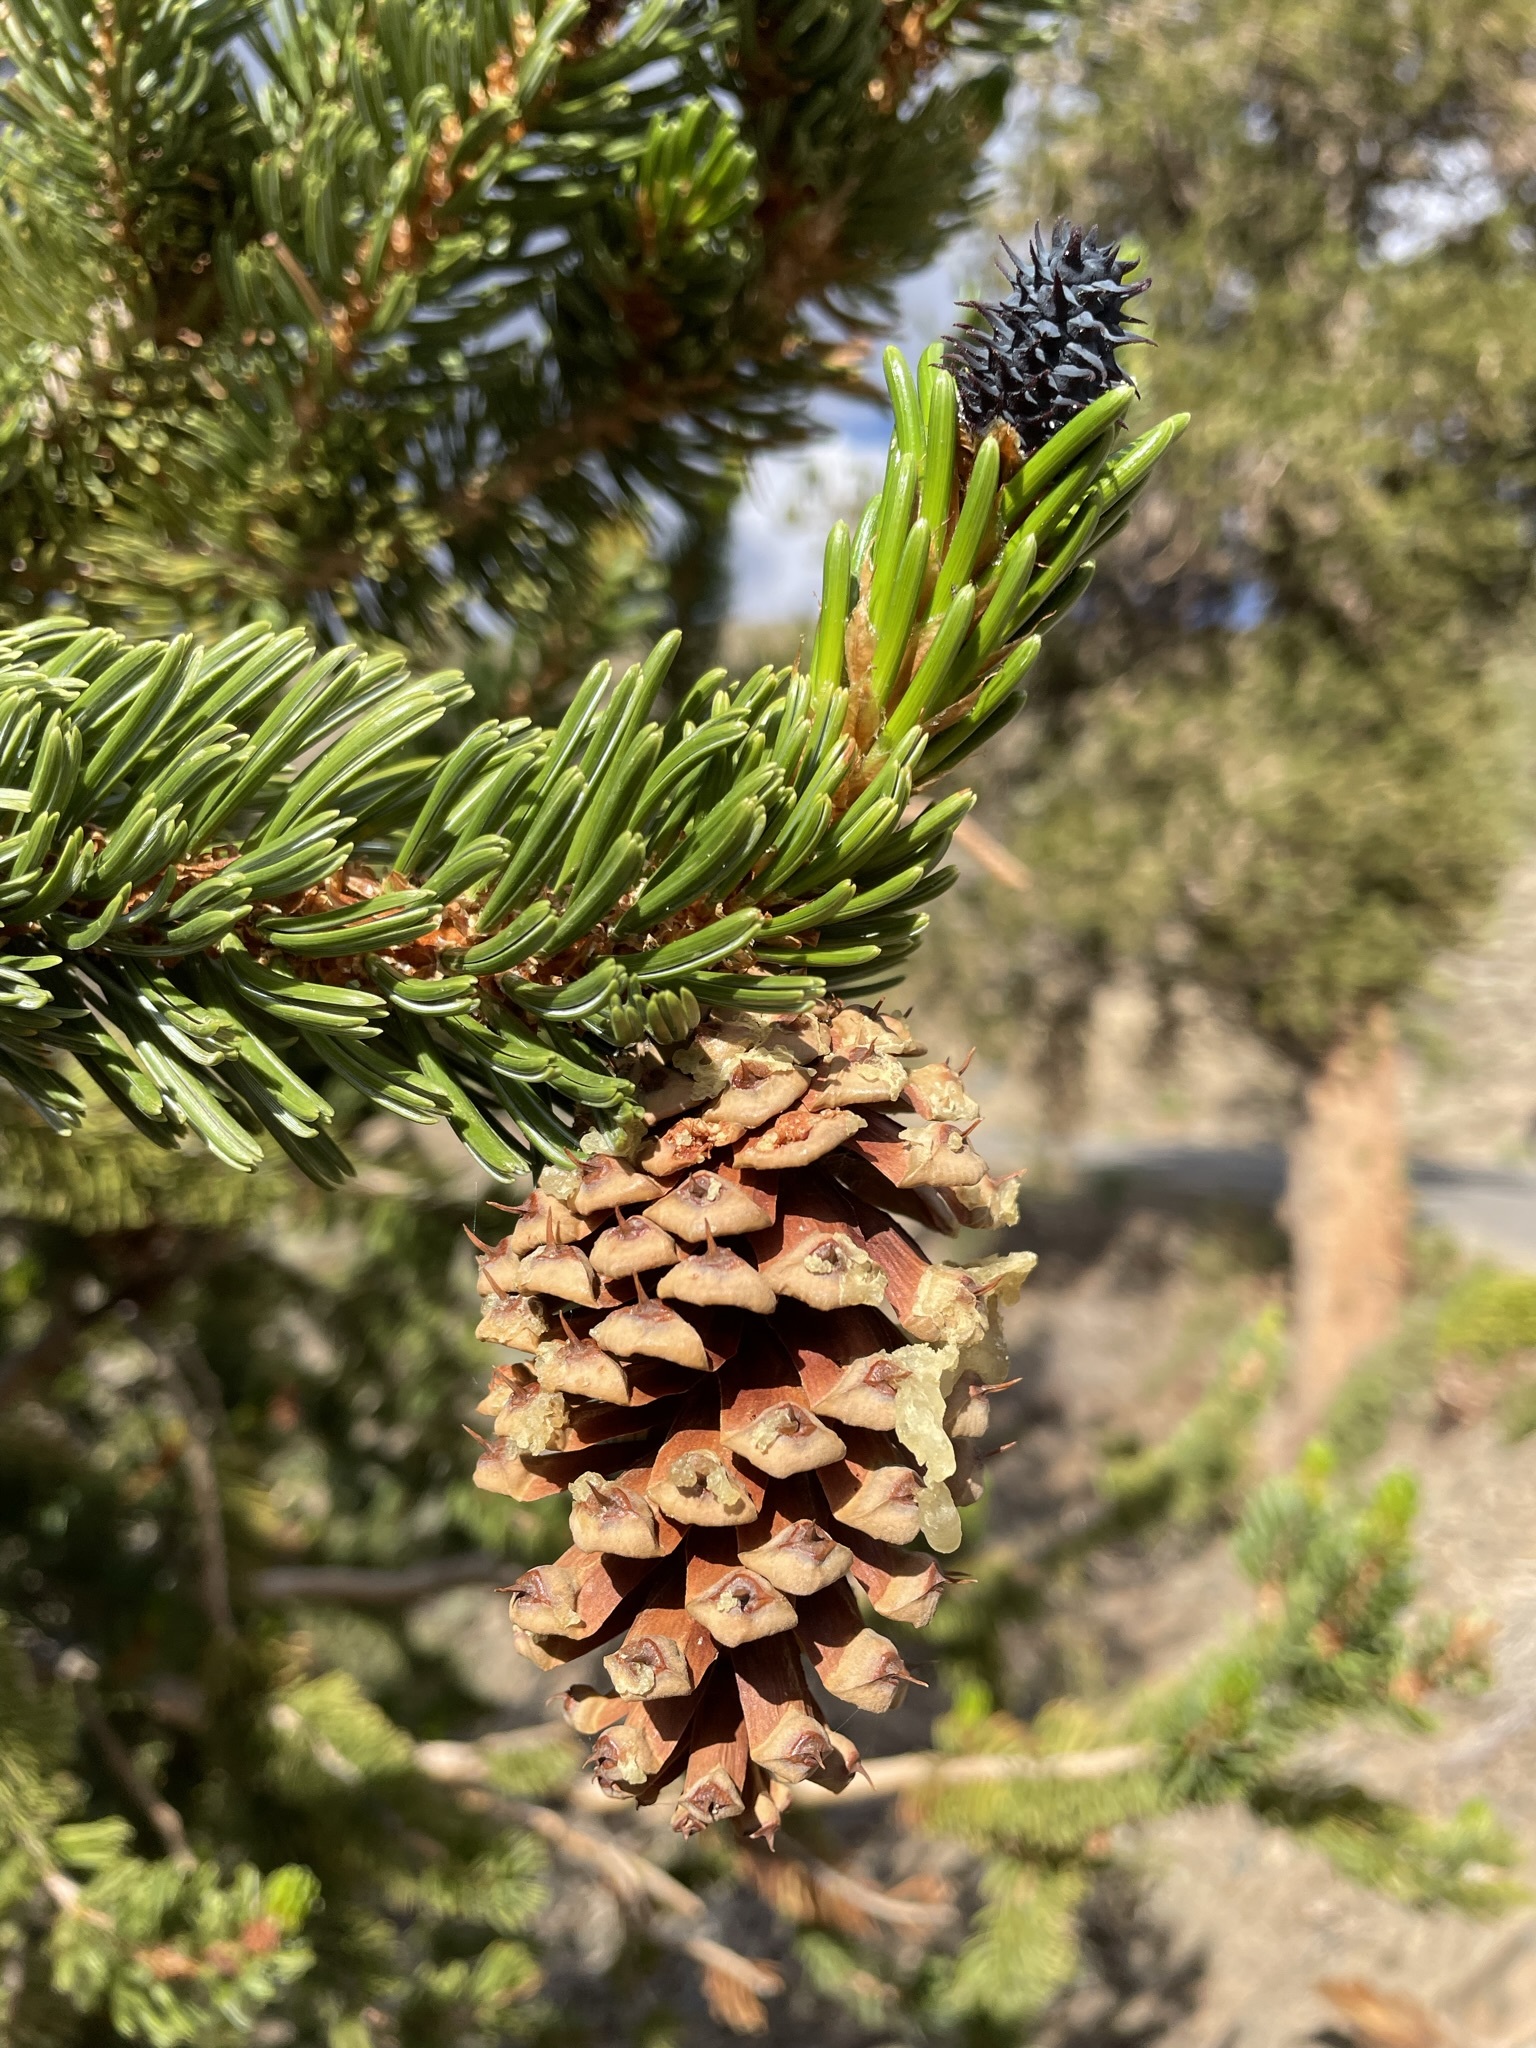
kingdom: Plantae
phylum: Tracheophyta
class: Pinopsida
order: Pinales
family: Pinaceae
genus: Pinus
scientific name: Pinus longaeva
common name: Intermountain bristlecone pine
